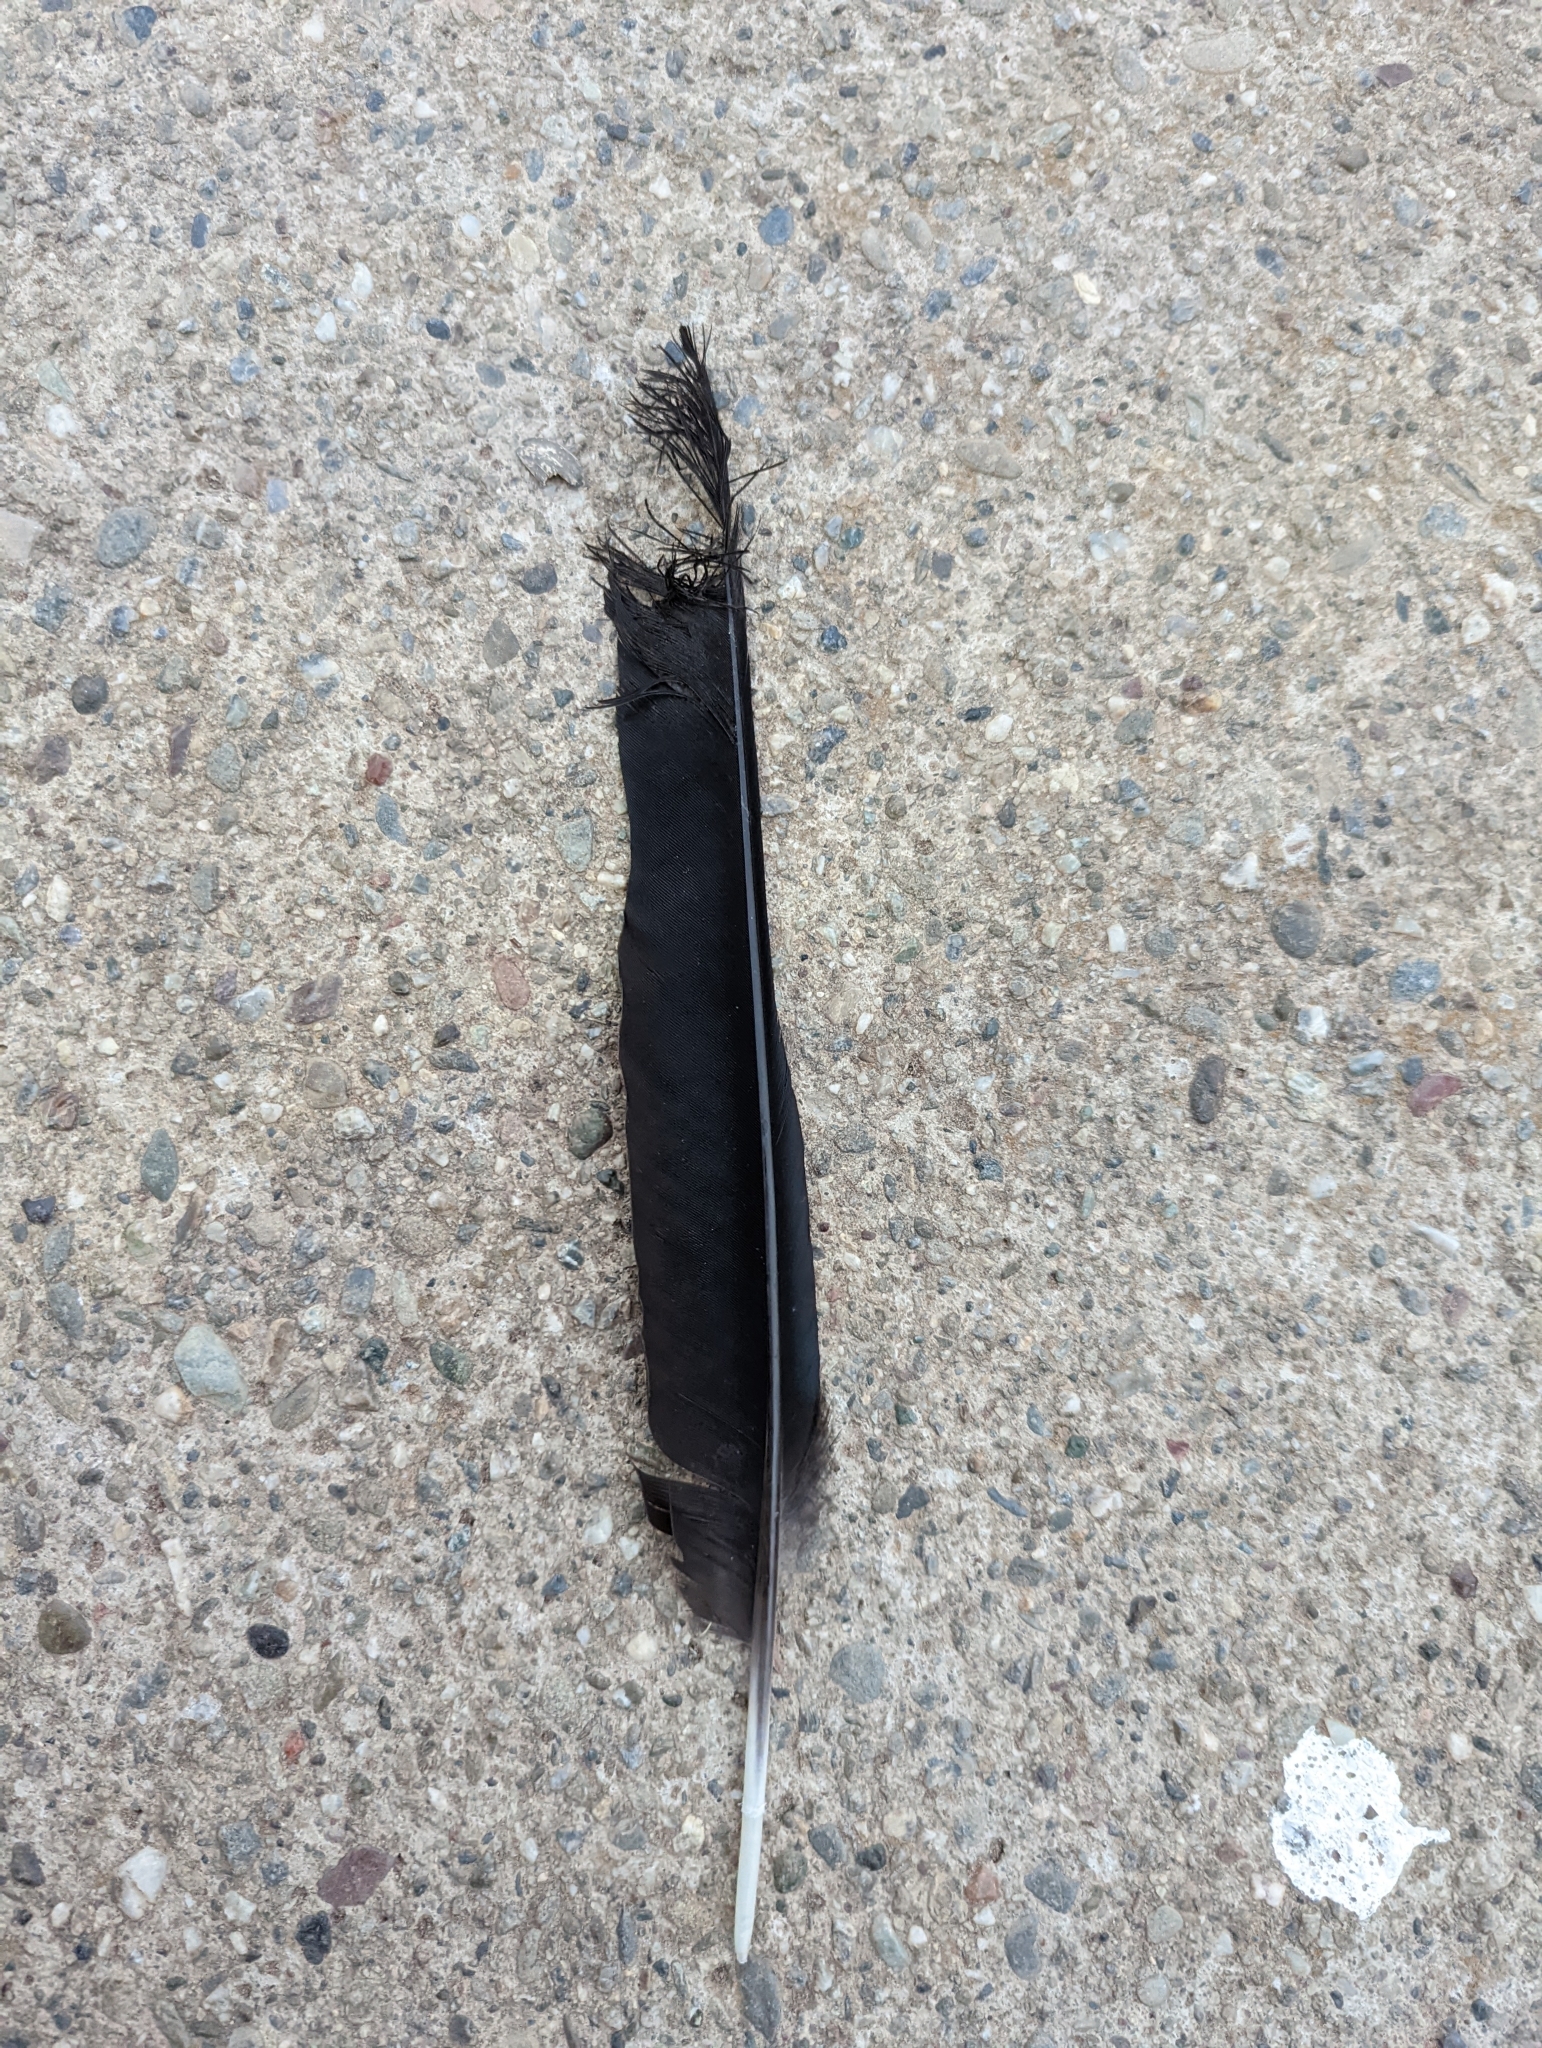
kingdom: Animalia
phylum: Chordata
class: Aves
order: Passeriformes
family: Corvidae
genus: Corvus
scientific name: Corvus brachyrhynchos
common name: American crow
